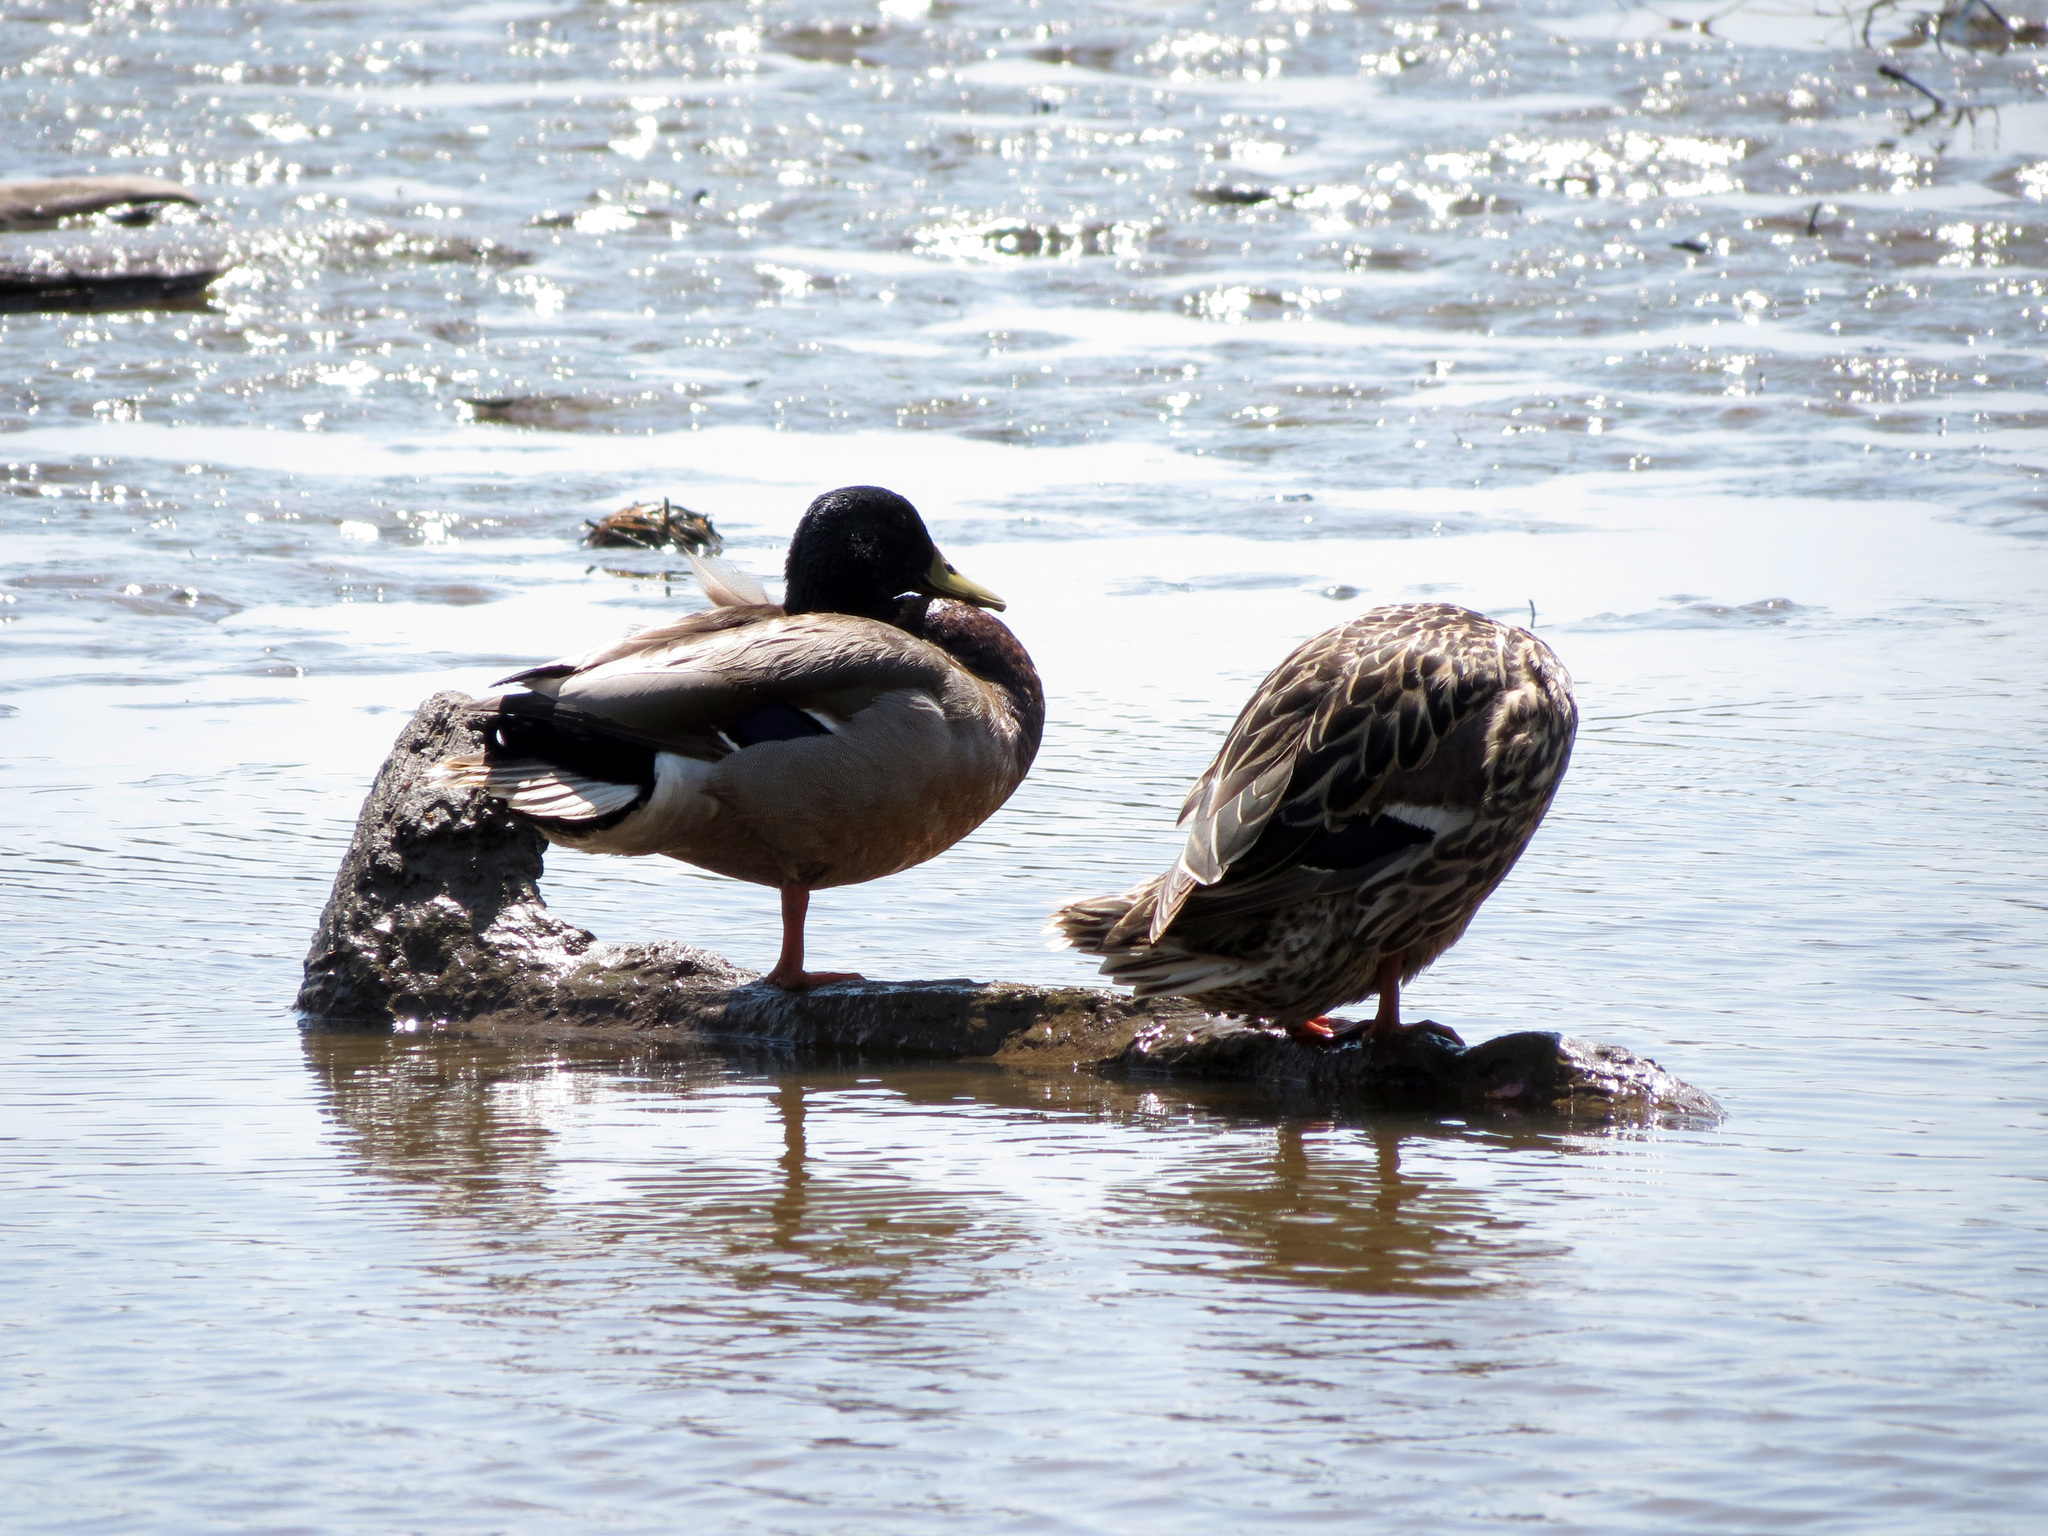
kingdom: Animalia
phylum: Chordata
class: Aves
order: Anseriformes
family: Anatidae
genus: Anas
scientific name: Anas platyrhynchos
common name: Mallard
